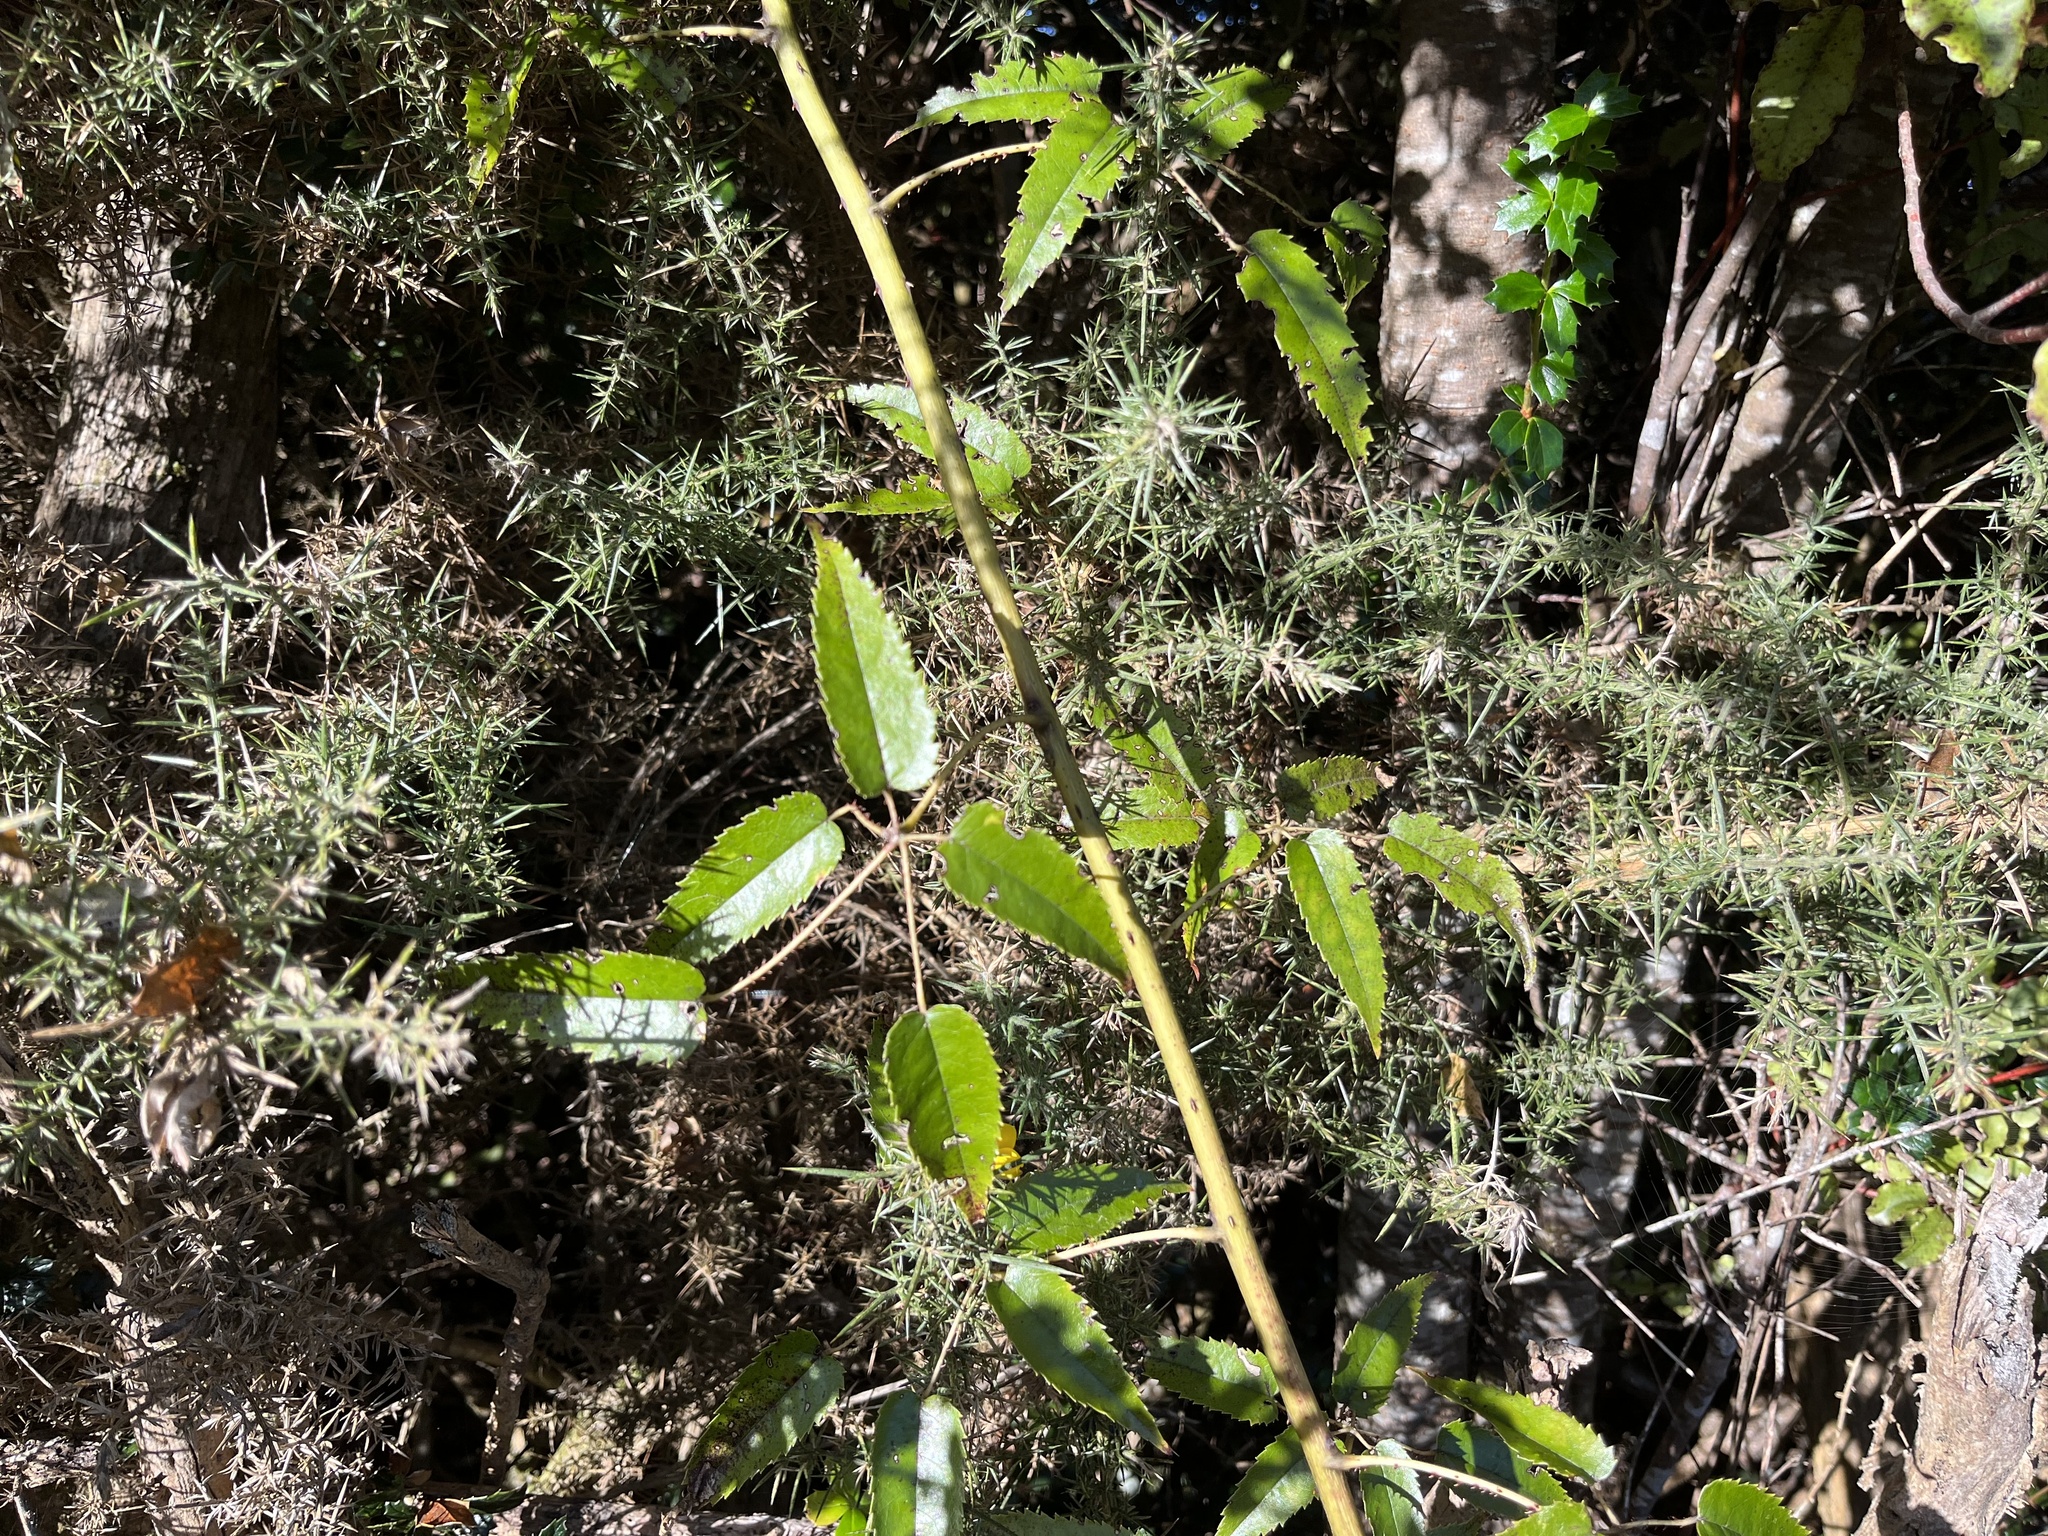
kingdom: Plantae
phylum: Tracheophyta
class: Magnoliopsida
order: Rosales
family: Rosaceae
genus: Rubus
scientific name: Rubus cissoides
